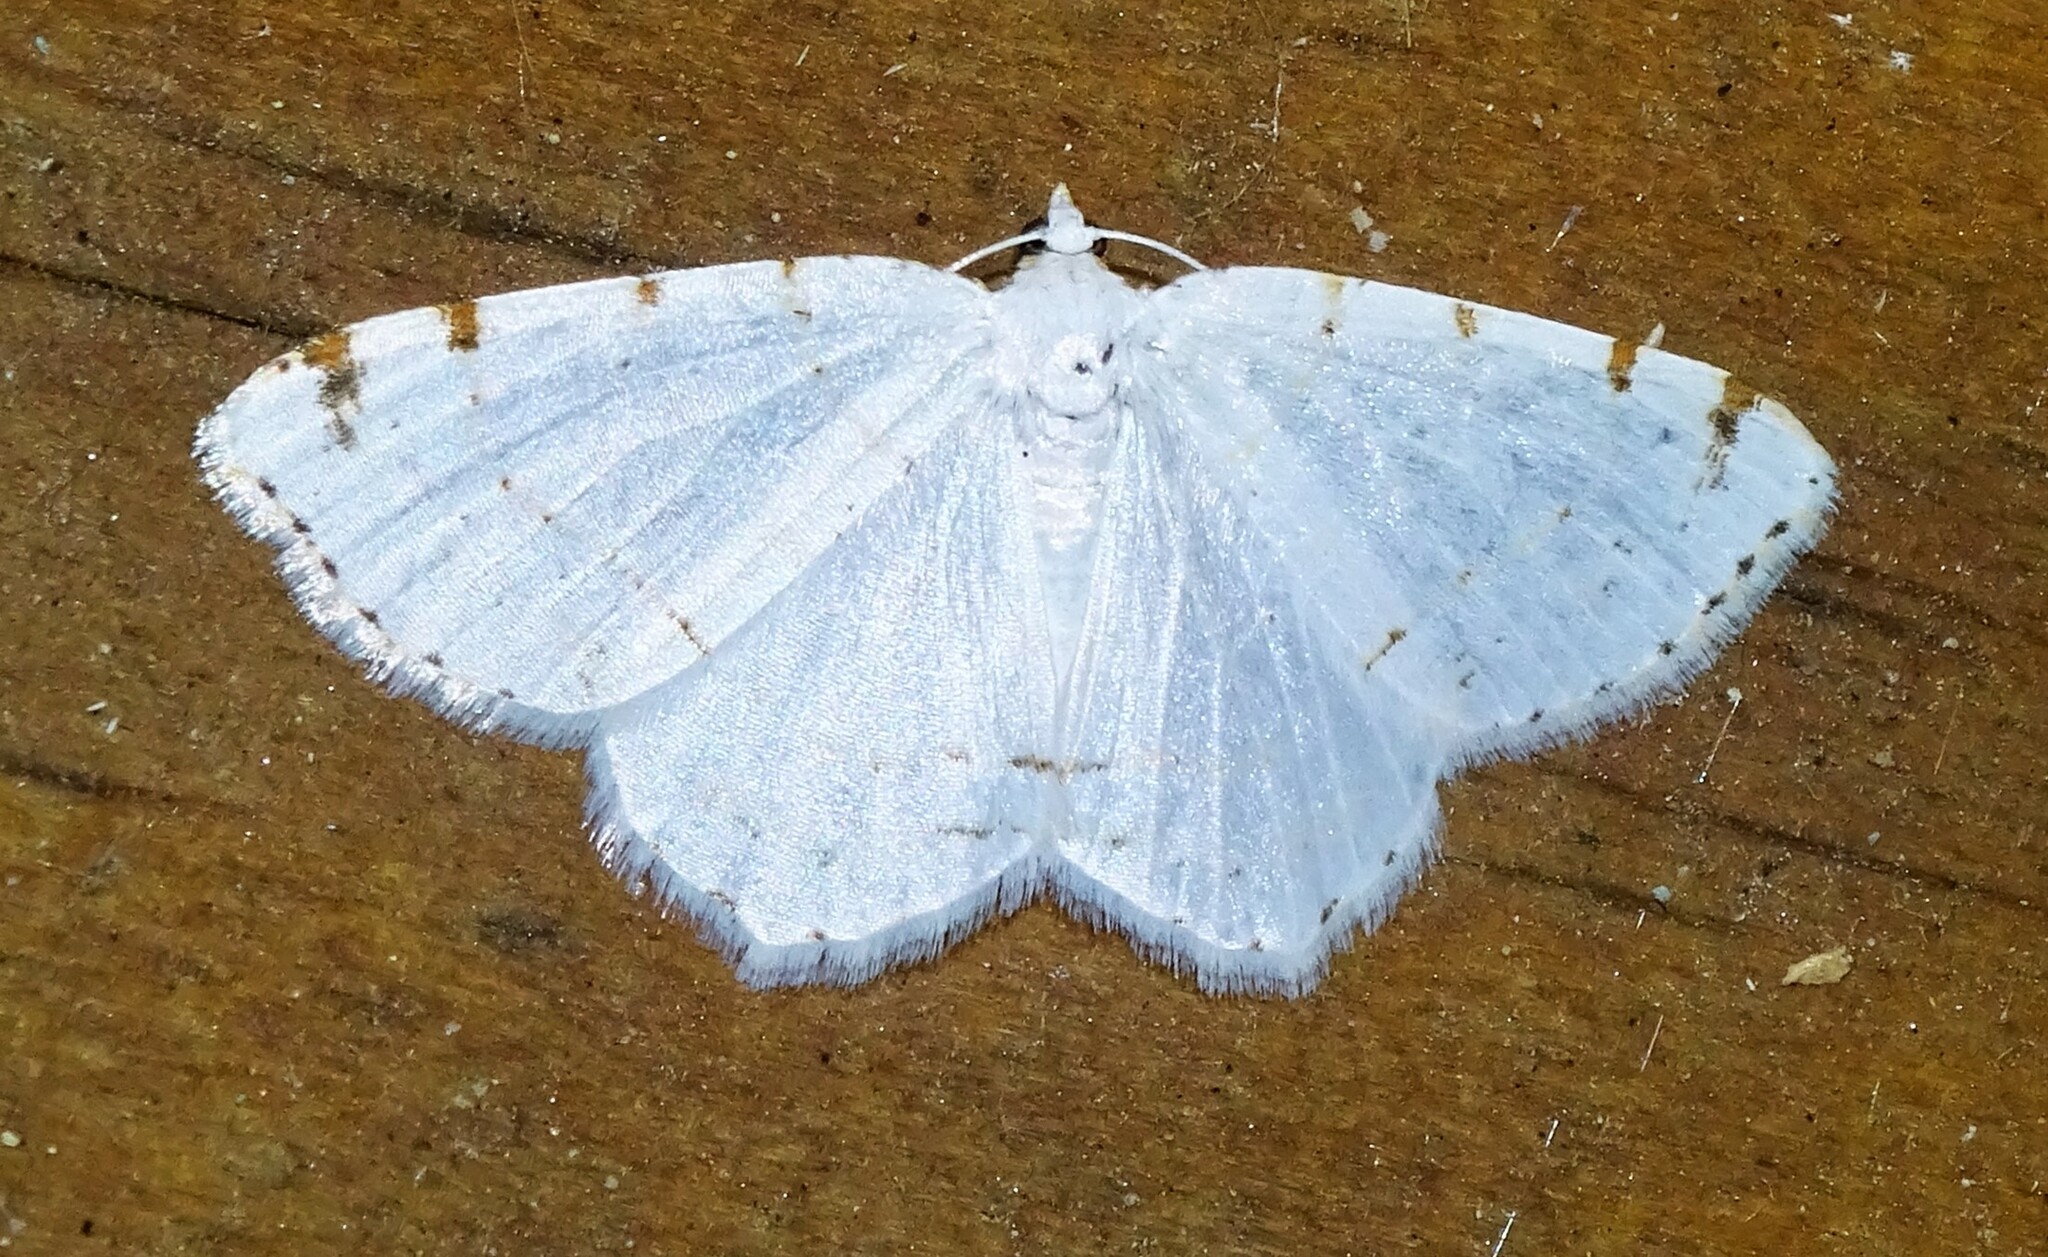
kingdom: Animalia
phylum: Arthropoda
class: Insecta
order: Lepidoptera
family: Geometridae
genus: Macaria
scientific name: Macaria pustularia
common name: Lesser maple spanworm moth
